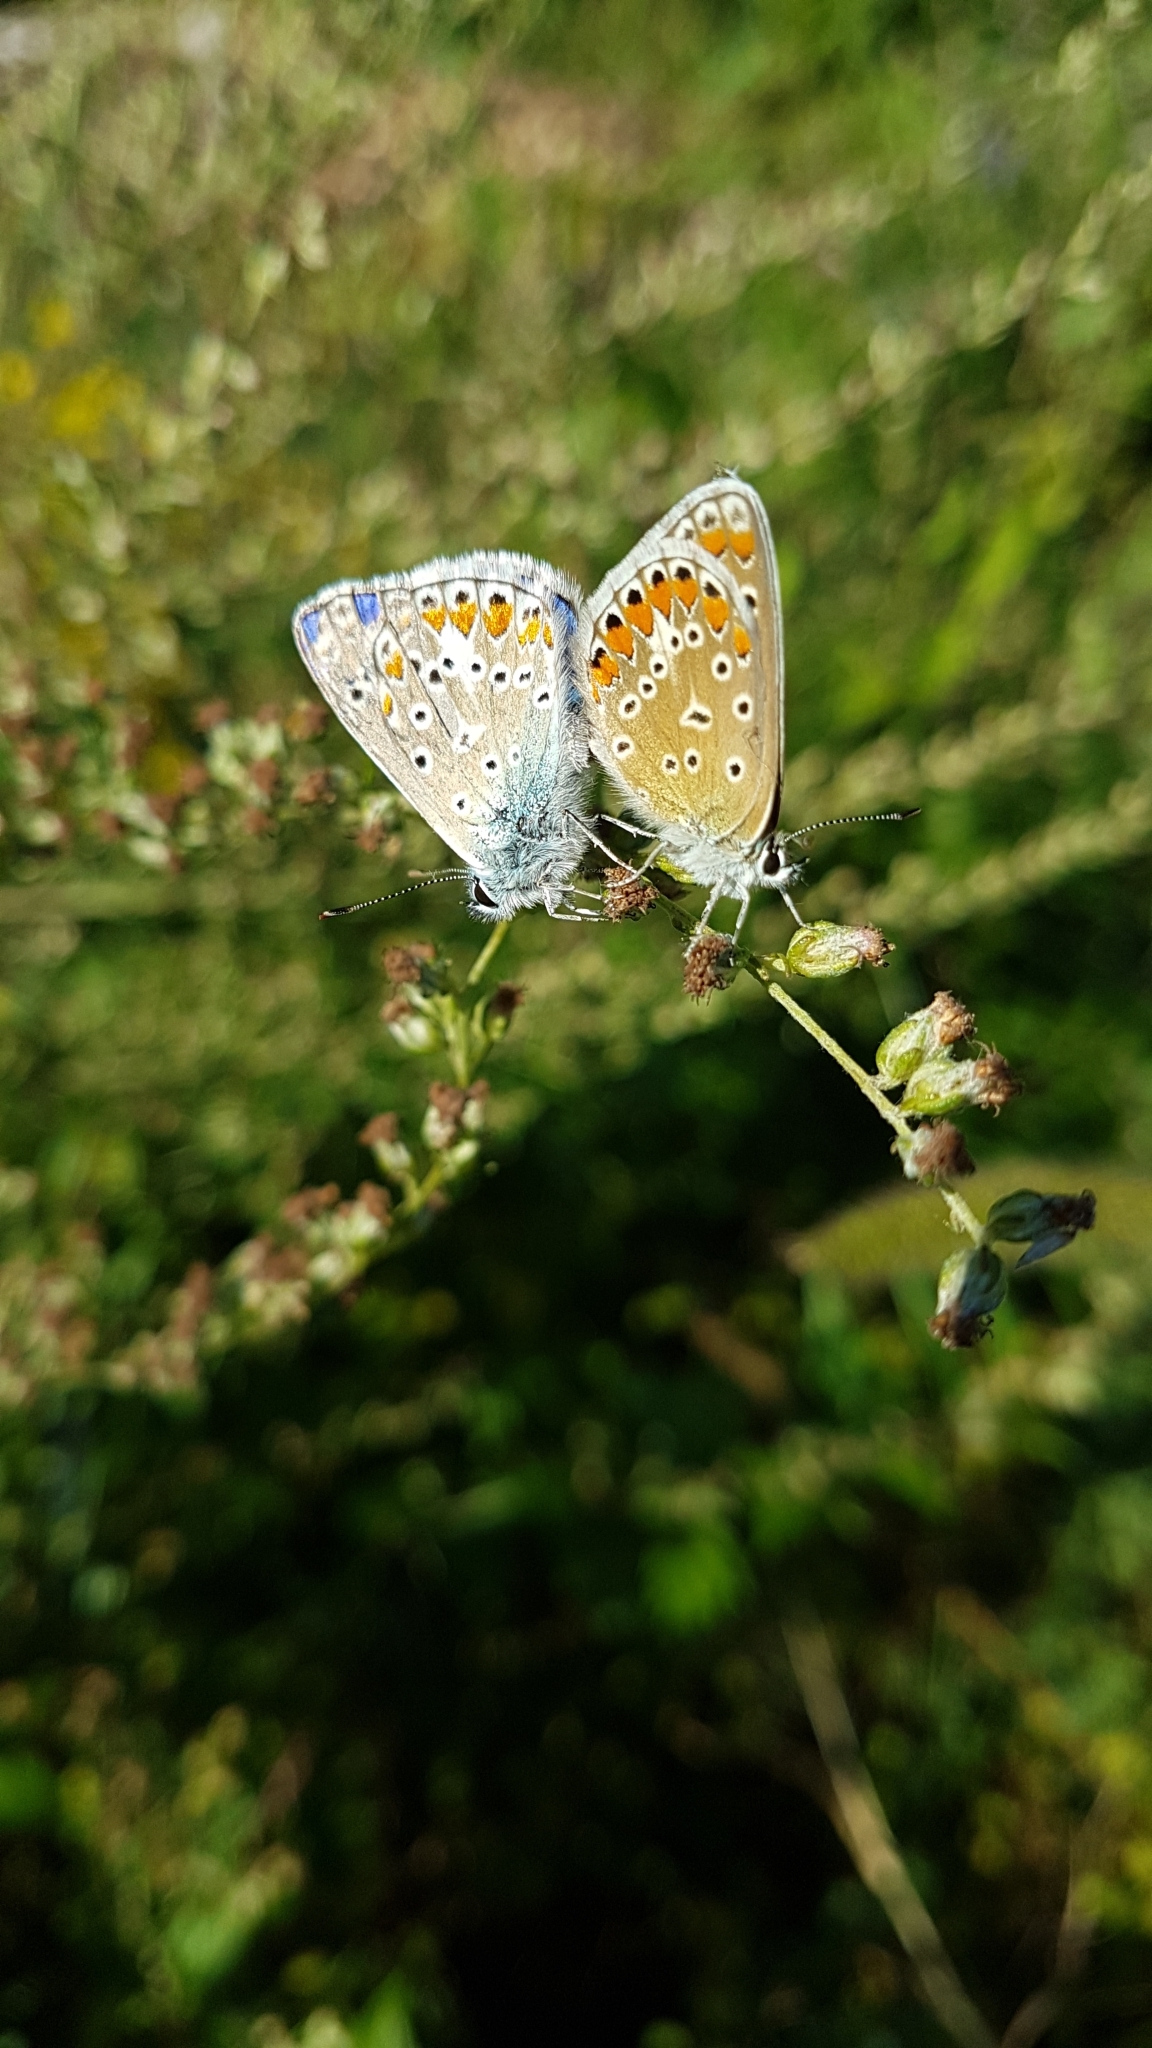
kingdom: Animalia
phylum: Arthropoda
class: Insecta
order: Lepidoptera
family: Lycaenidae
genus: Polyommatus
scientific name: Polyommatus icarus
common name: Common blue
